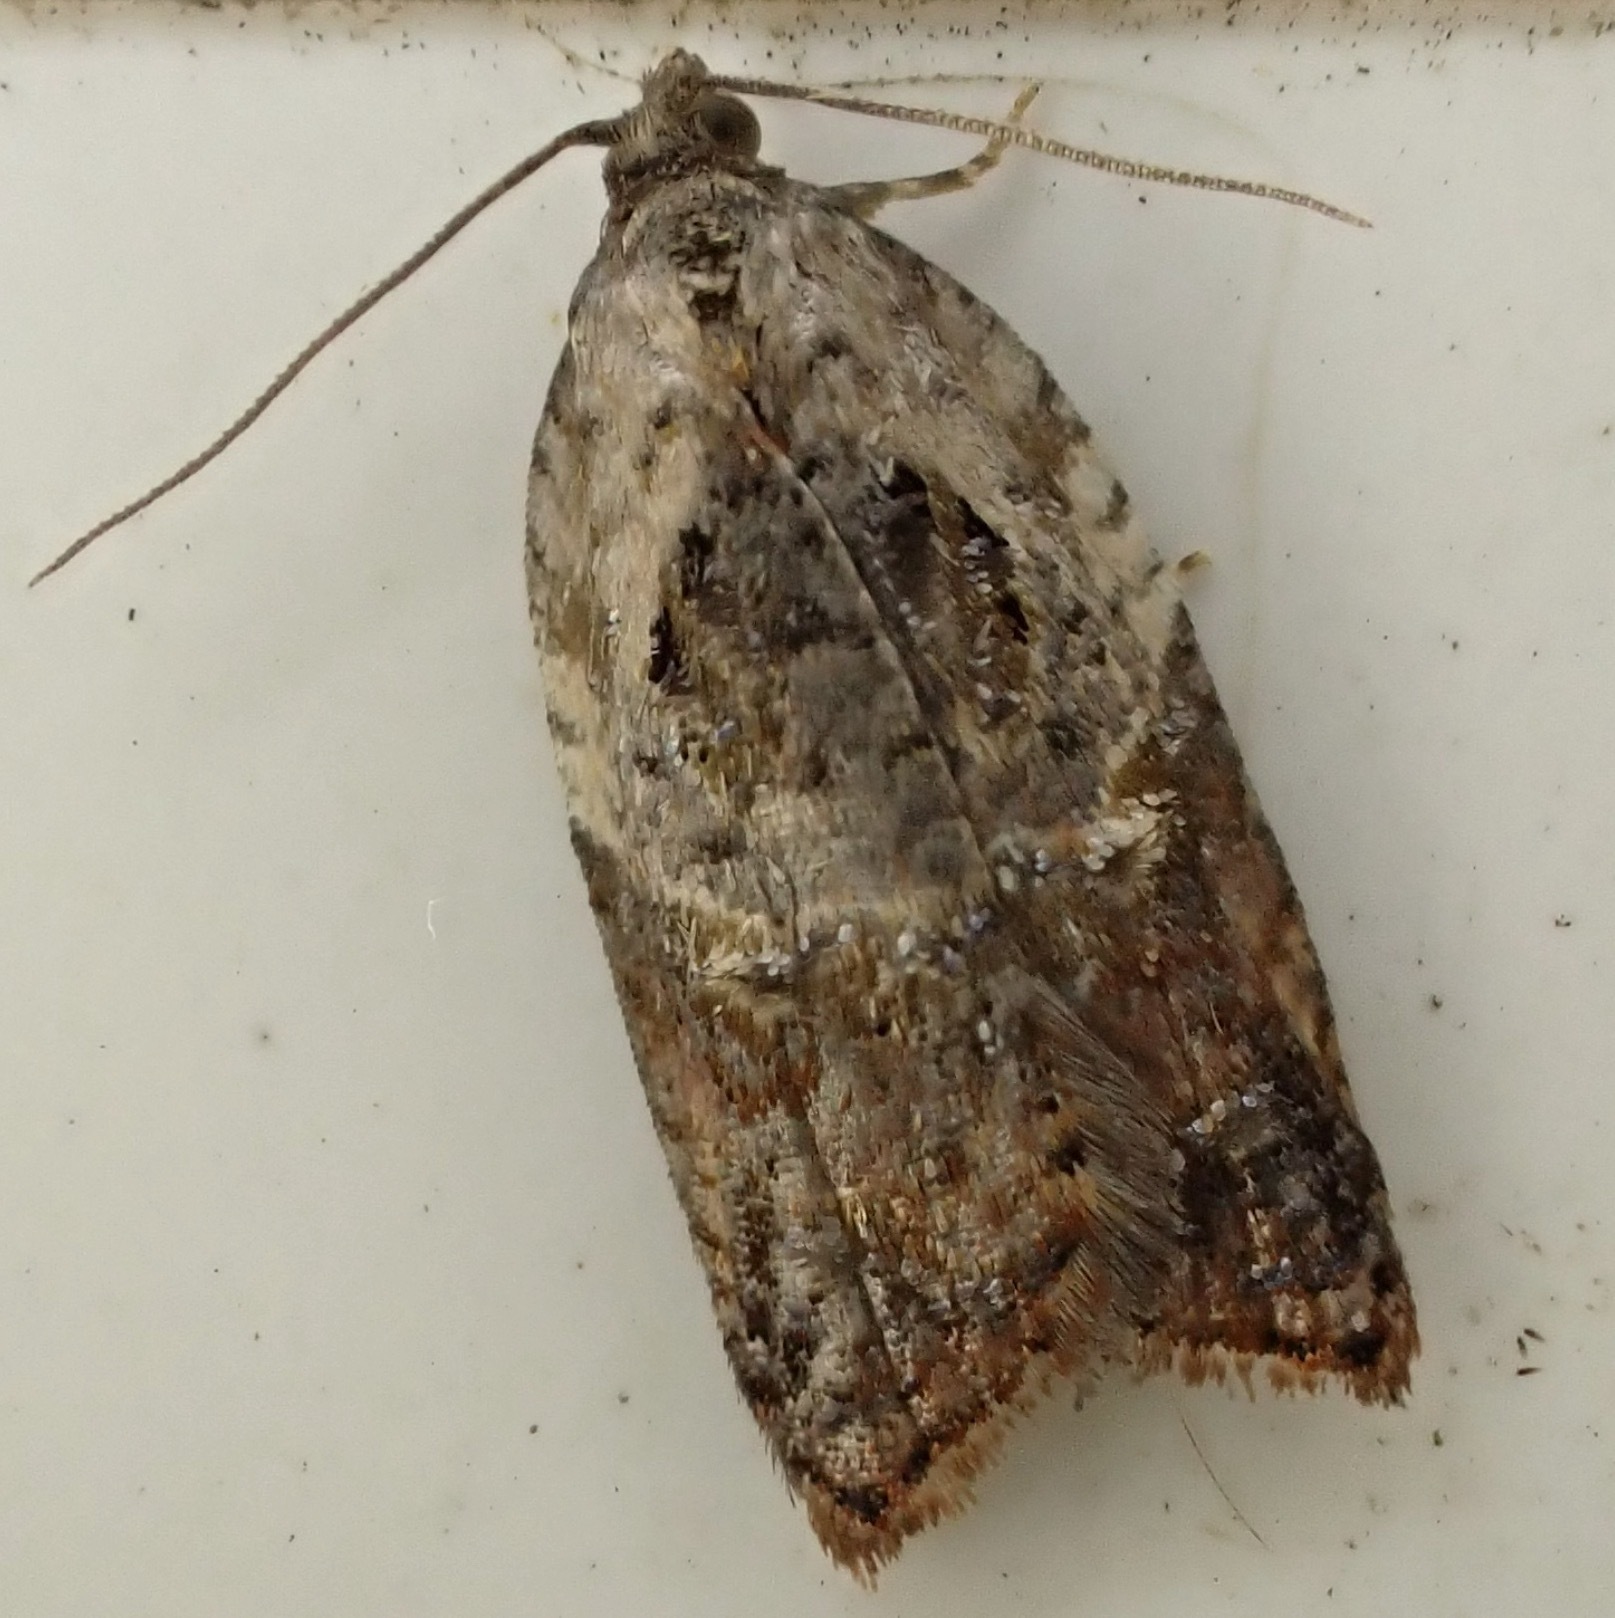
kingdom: Animalia
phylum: Arthropoda
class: Insecta
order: Lepidoptera
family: Tortricidae
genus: Acleris
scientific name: Acleris variegana
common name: Garden rose tortrix
